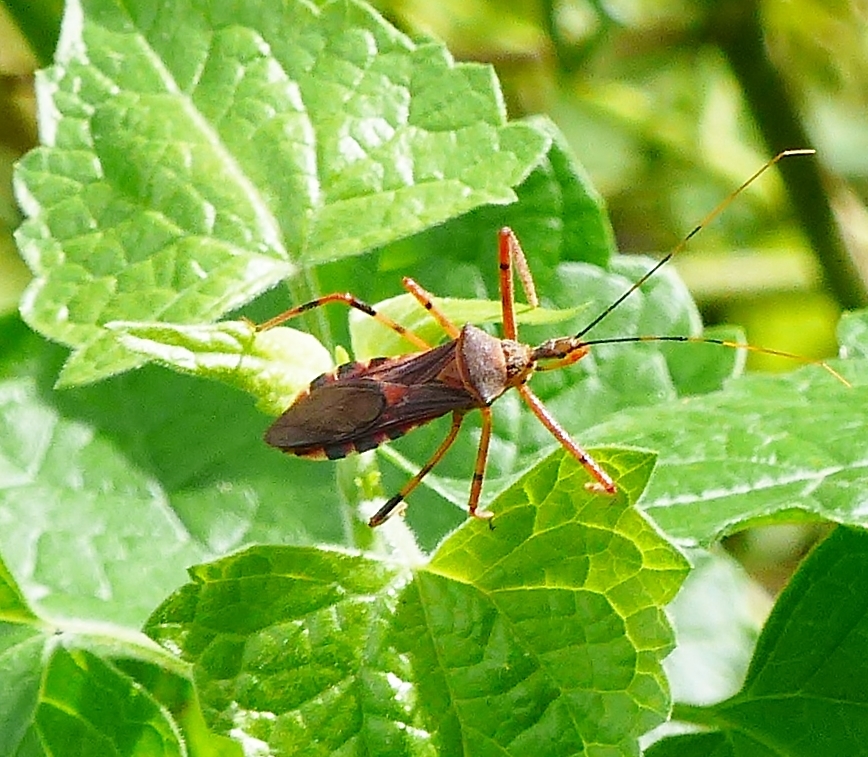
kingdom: Animalia
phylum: Arthropoda
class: Insecta
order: Hemiptera
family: Reduviidae
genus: Zelus
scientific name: Zelus janus
